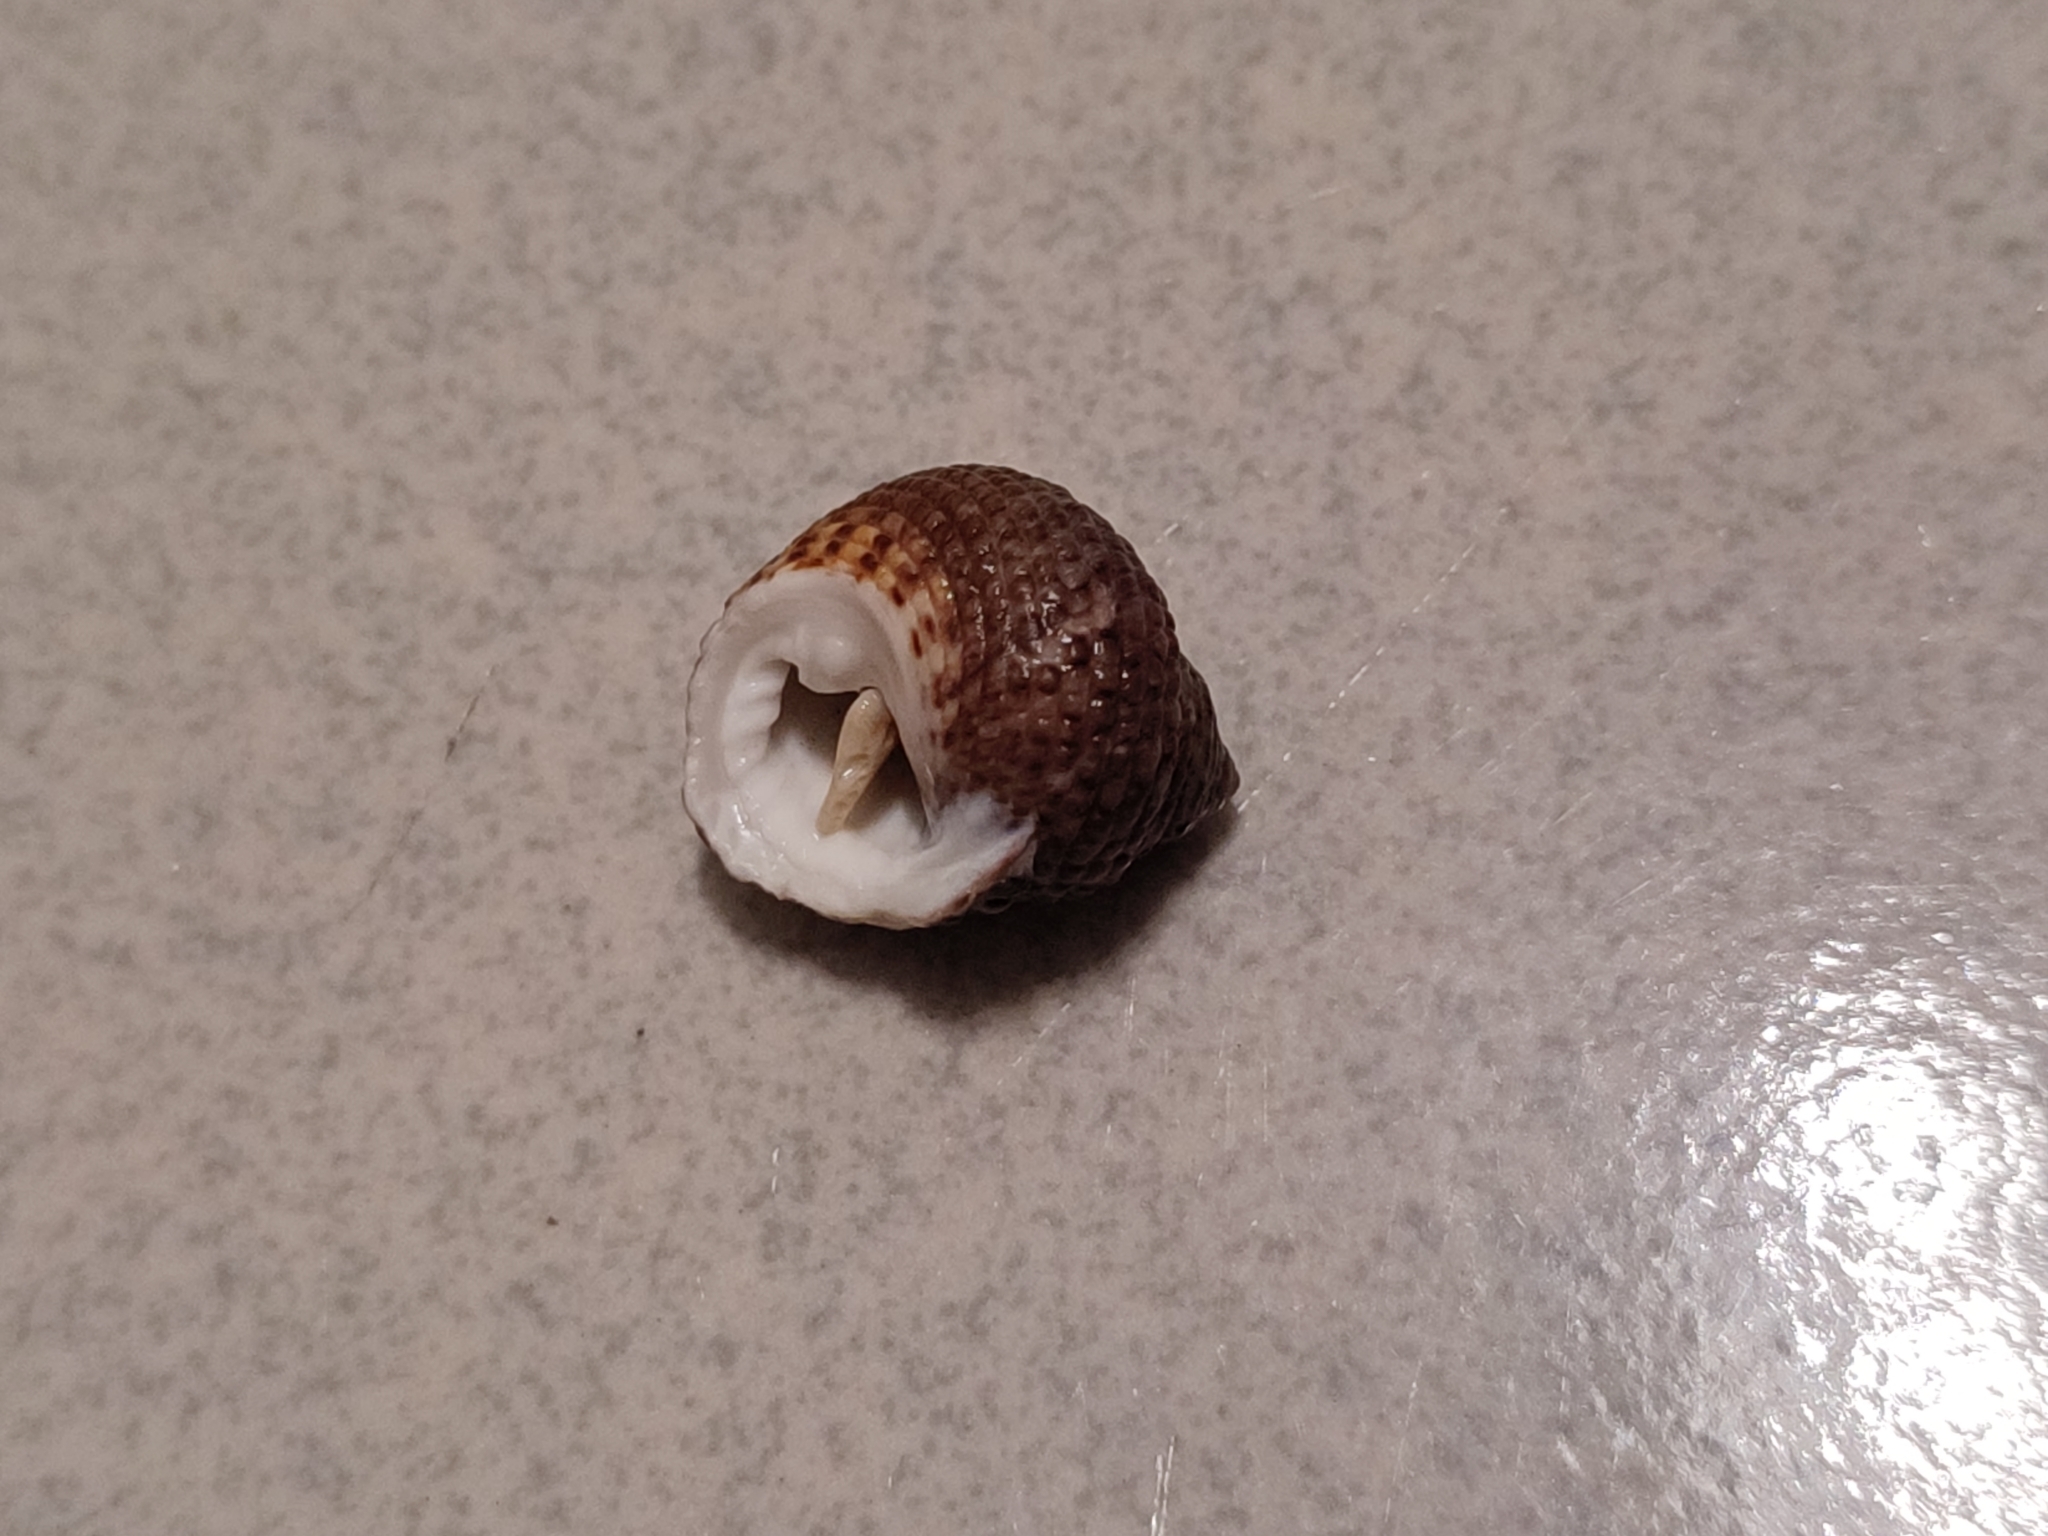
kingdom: Animalia
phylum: Mollusca
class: Gastropoda
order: Trochida
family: Trochidae
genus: Monodonta
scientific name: Monodonta labio
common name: Labio
